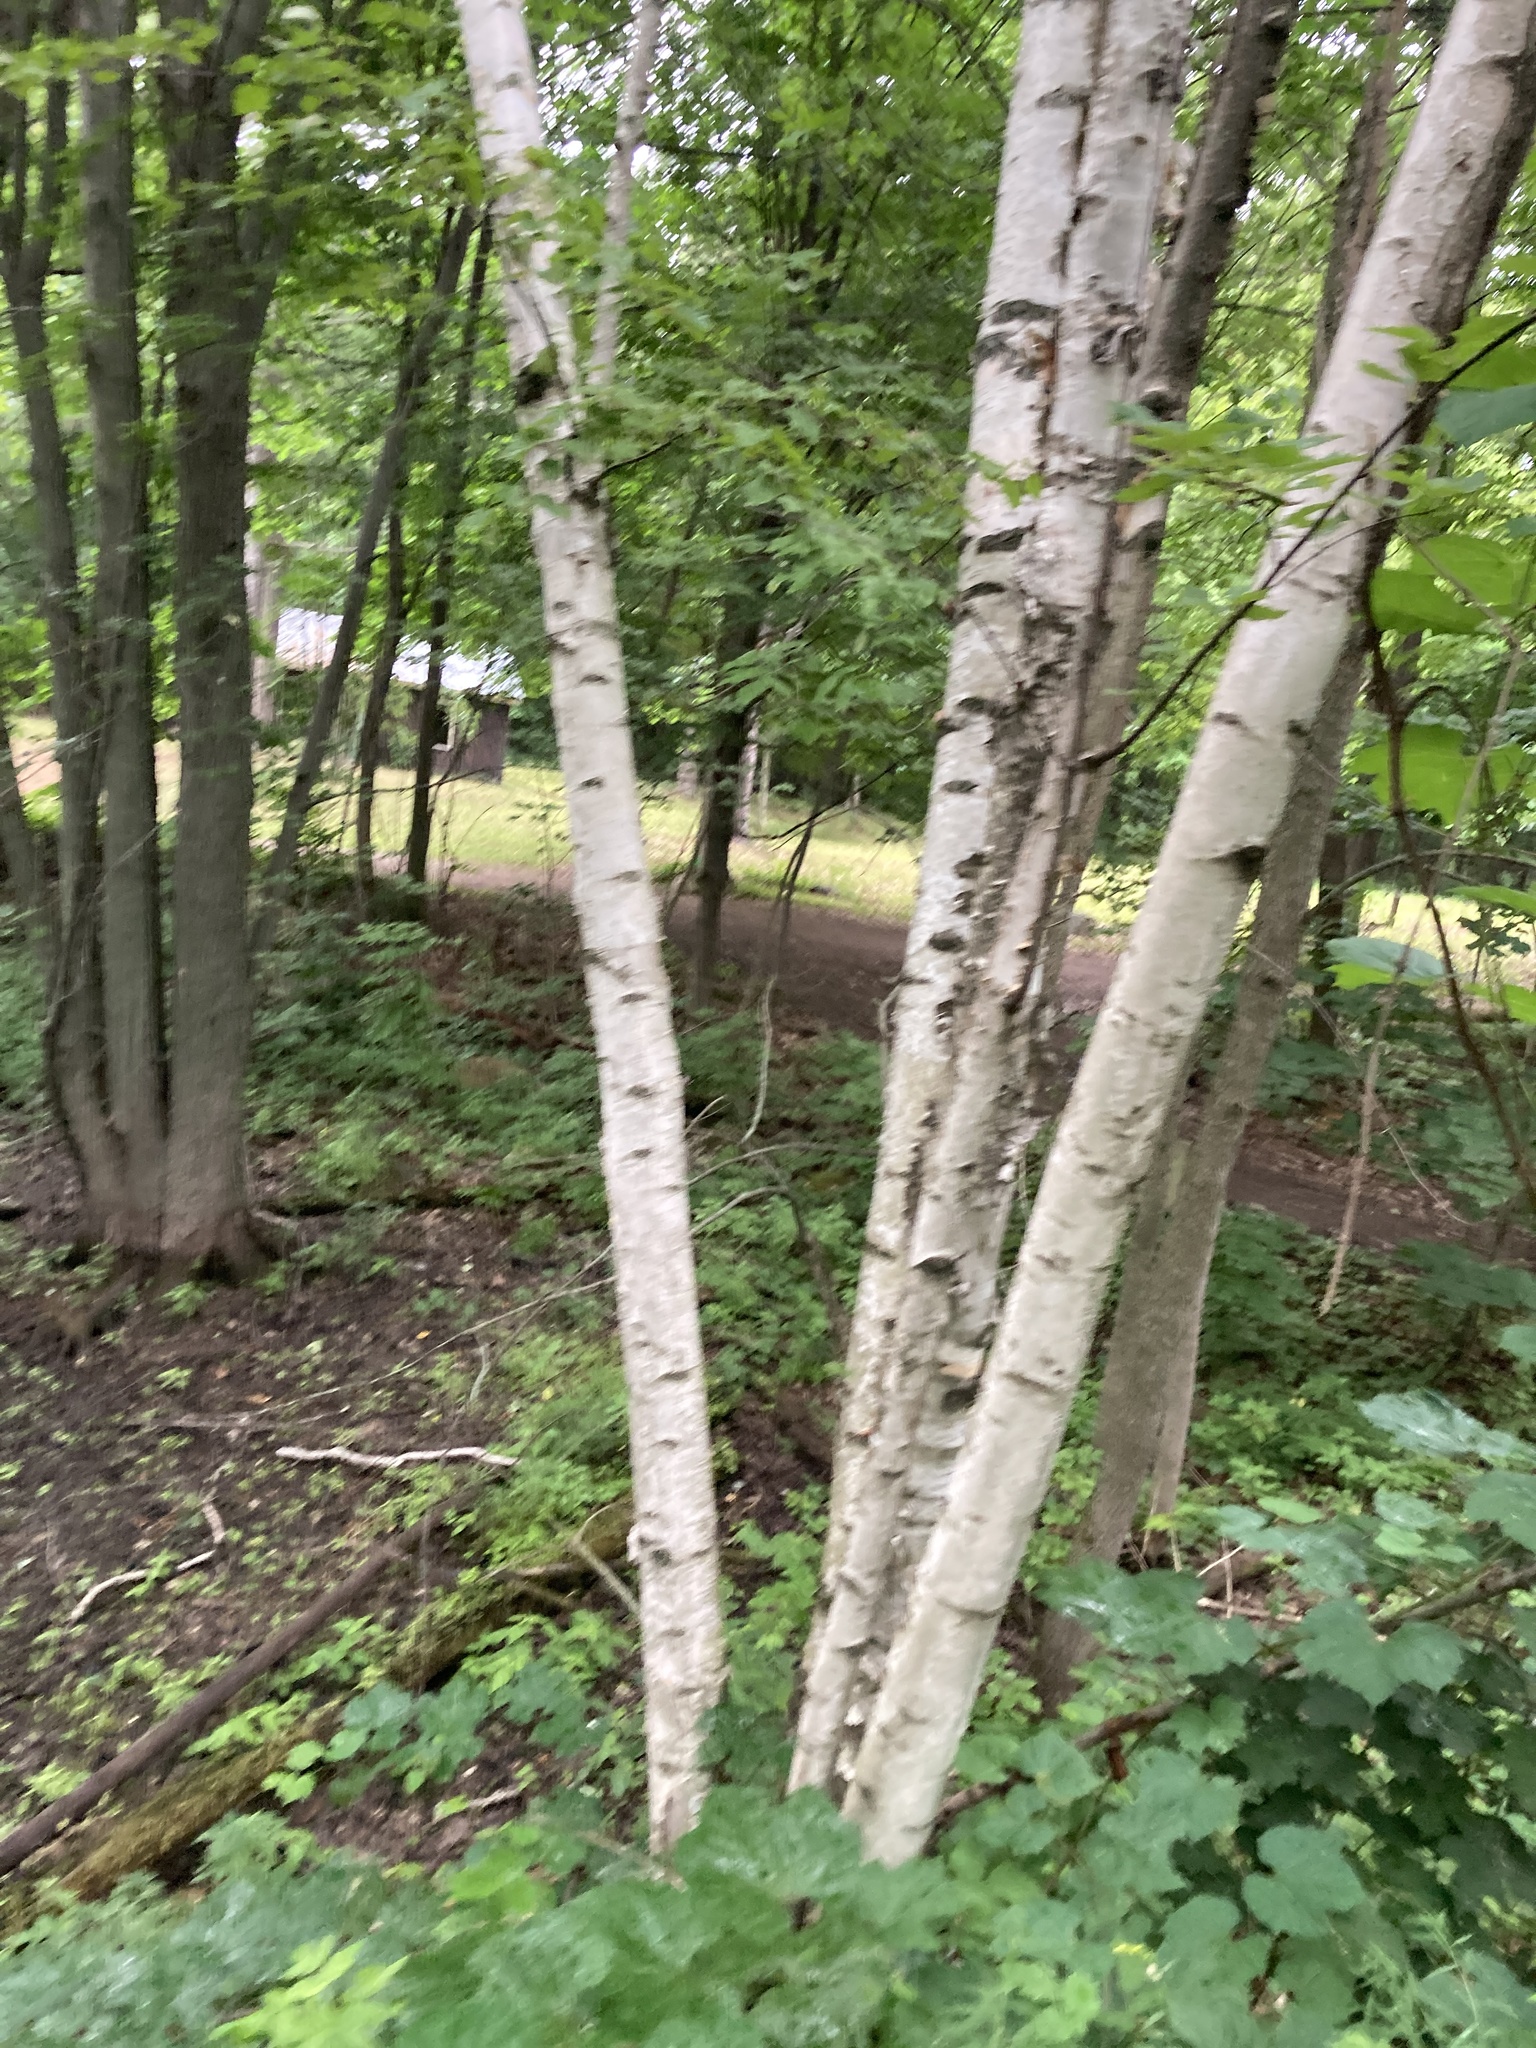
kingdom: Plantae
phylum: Tracheophyta
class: Magnoliopsida
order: Fagales
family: Betulaceae
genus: Betula
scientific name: Betula papyrifera
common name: Paper birch
